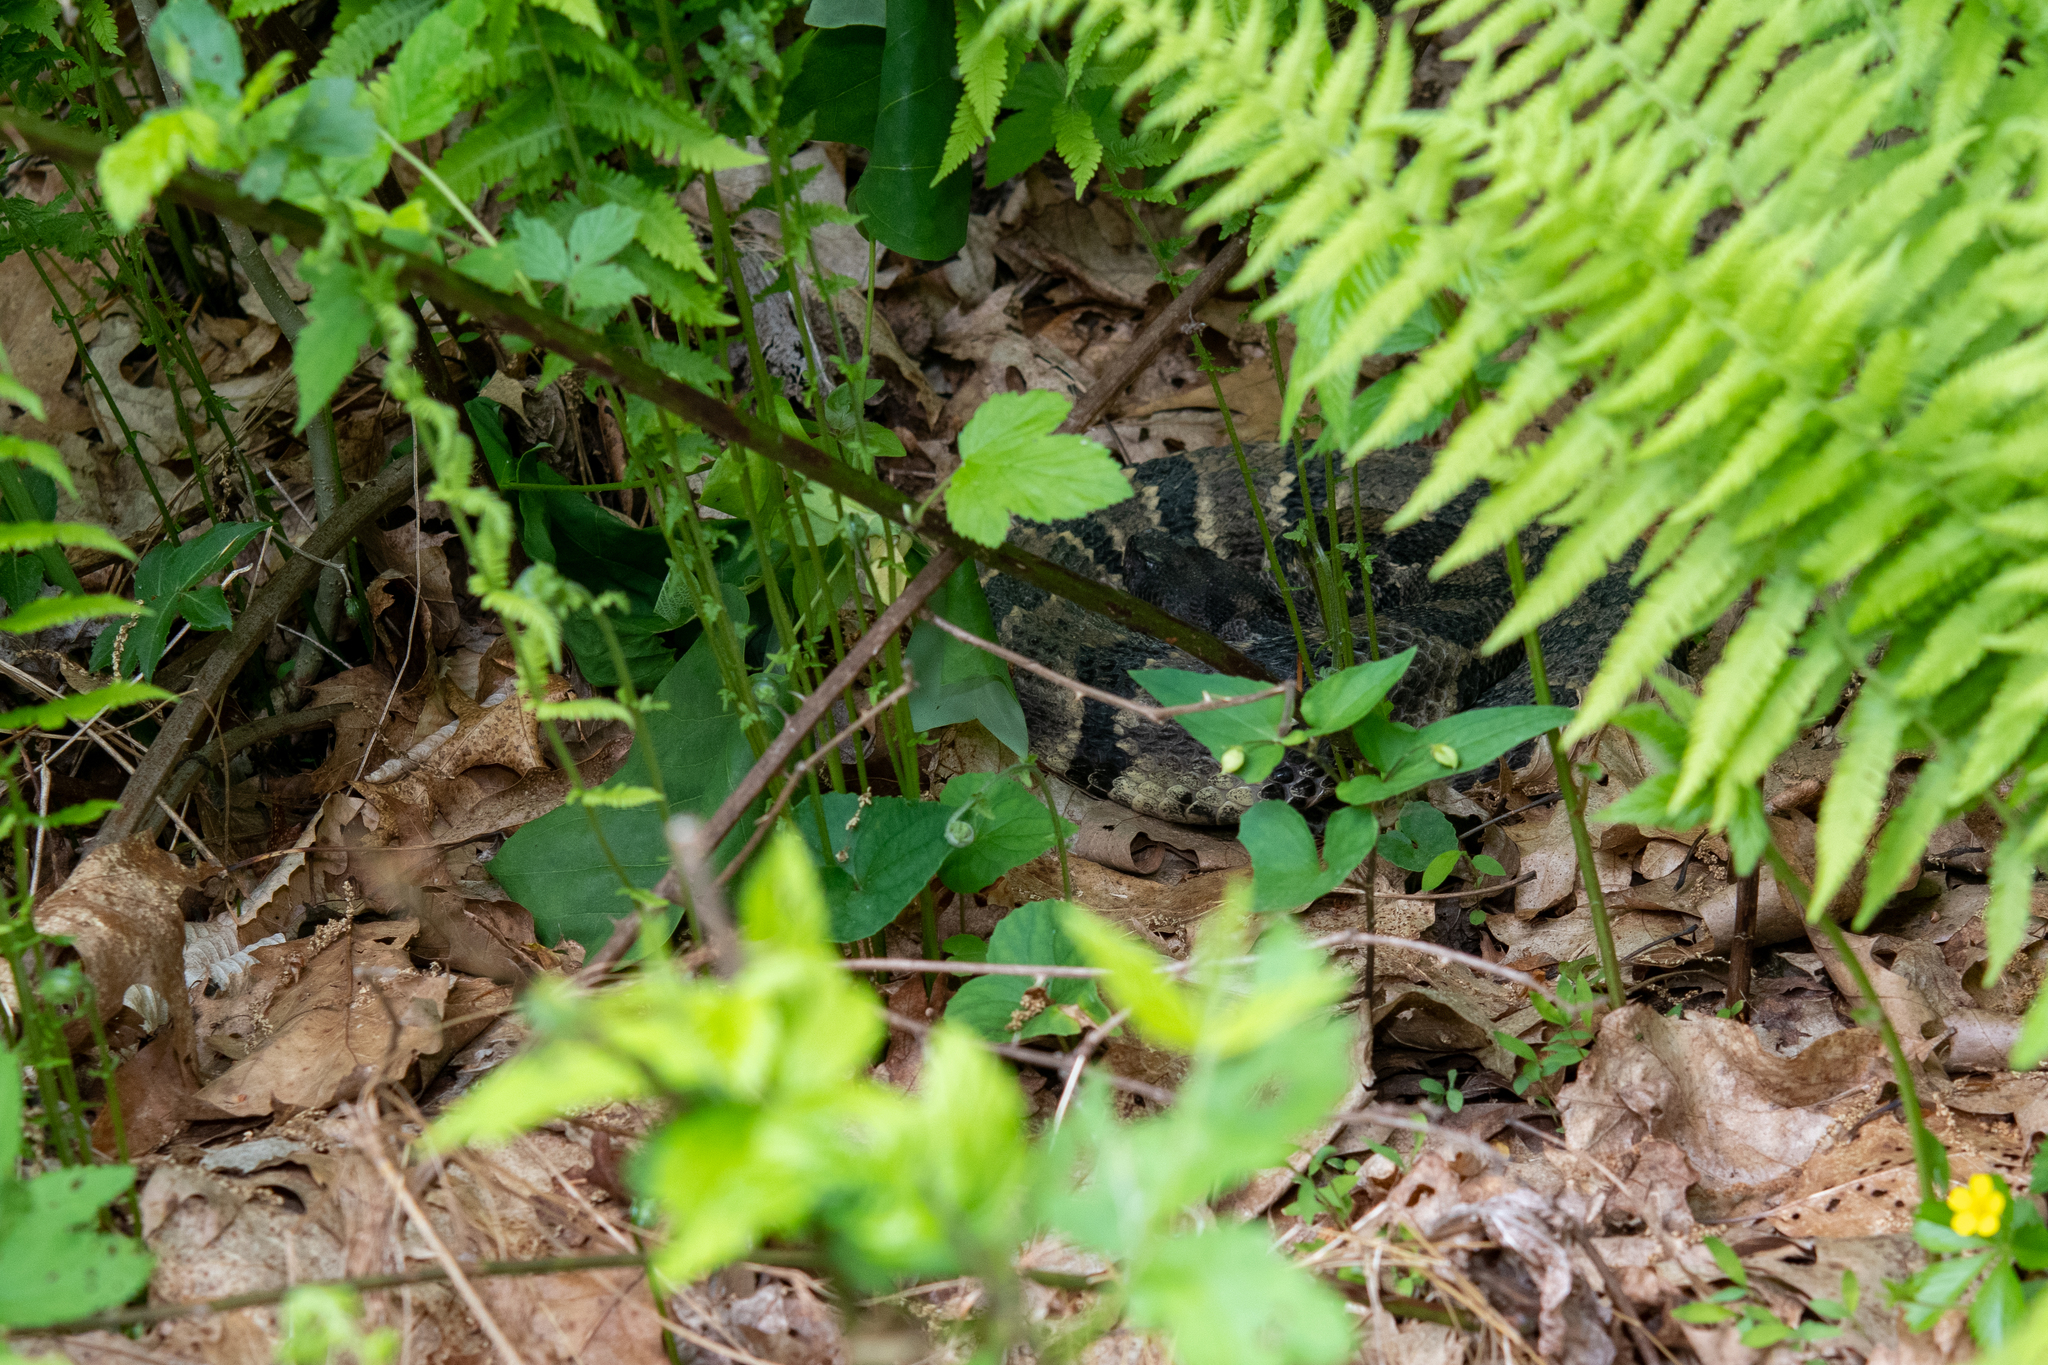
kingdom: Animalia
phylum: Chordata
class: Squamata
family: Viperidae
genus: Crotalus
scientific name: Crotalus horridus
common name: Timber rattlesnake
